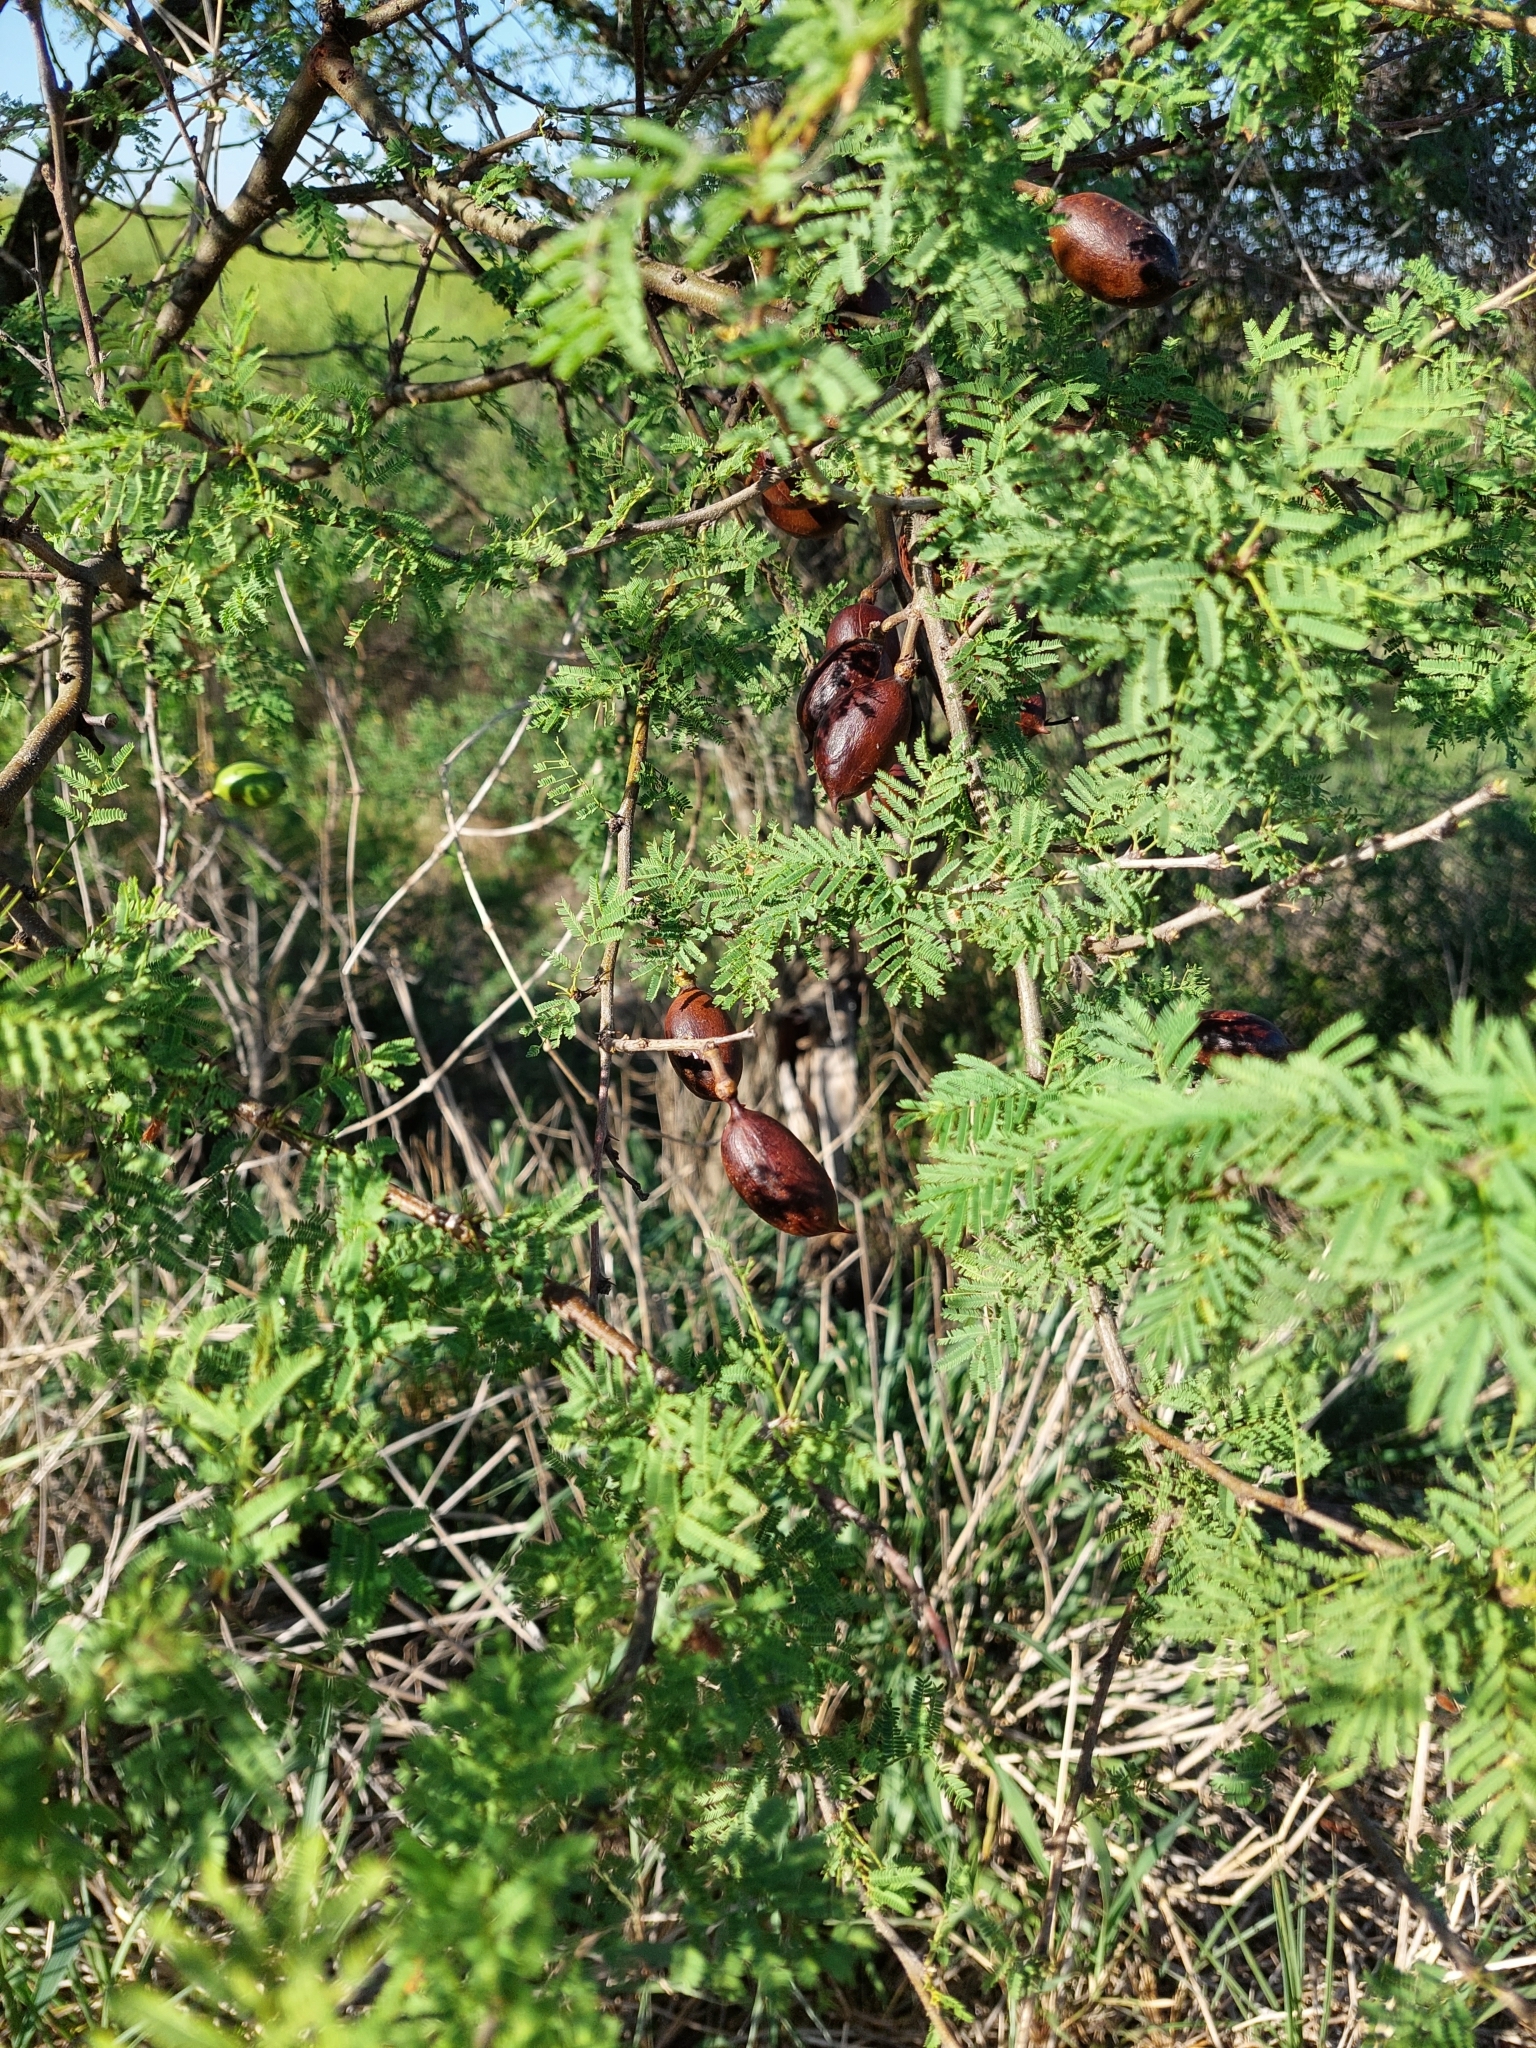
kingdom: Plantae
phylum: Tracheophyta
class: Magnoliopsida
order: Fabales
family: Fabaceae
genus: Vachellia
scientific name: Vachellia caven
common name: Roman cassie
